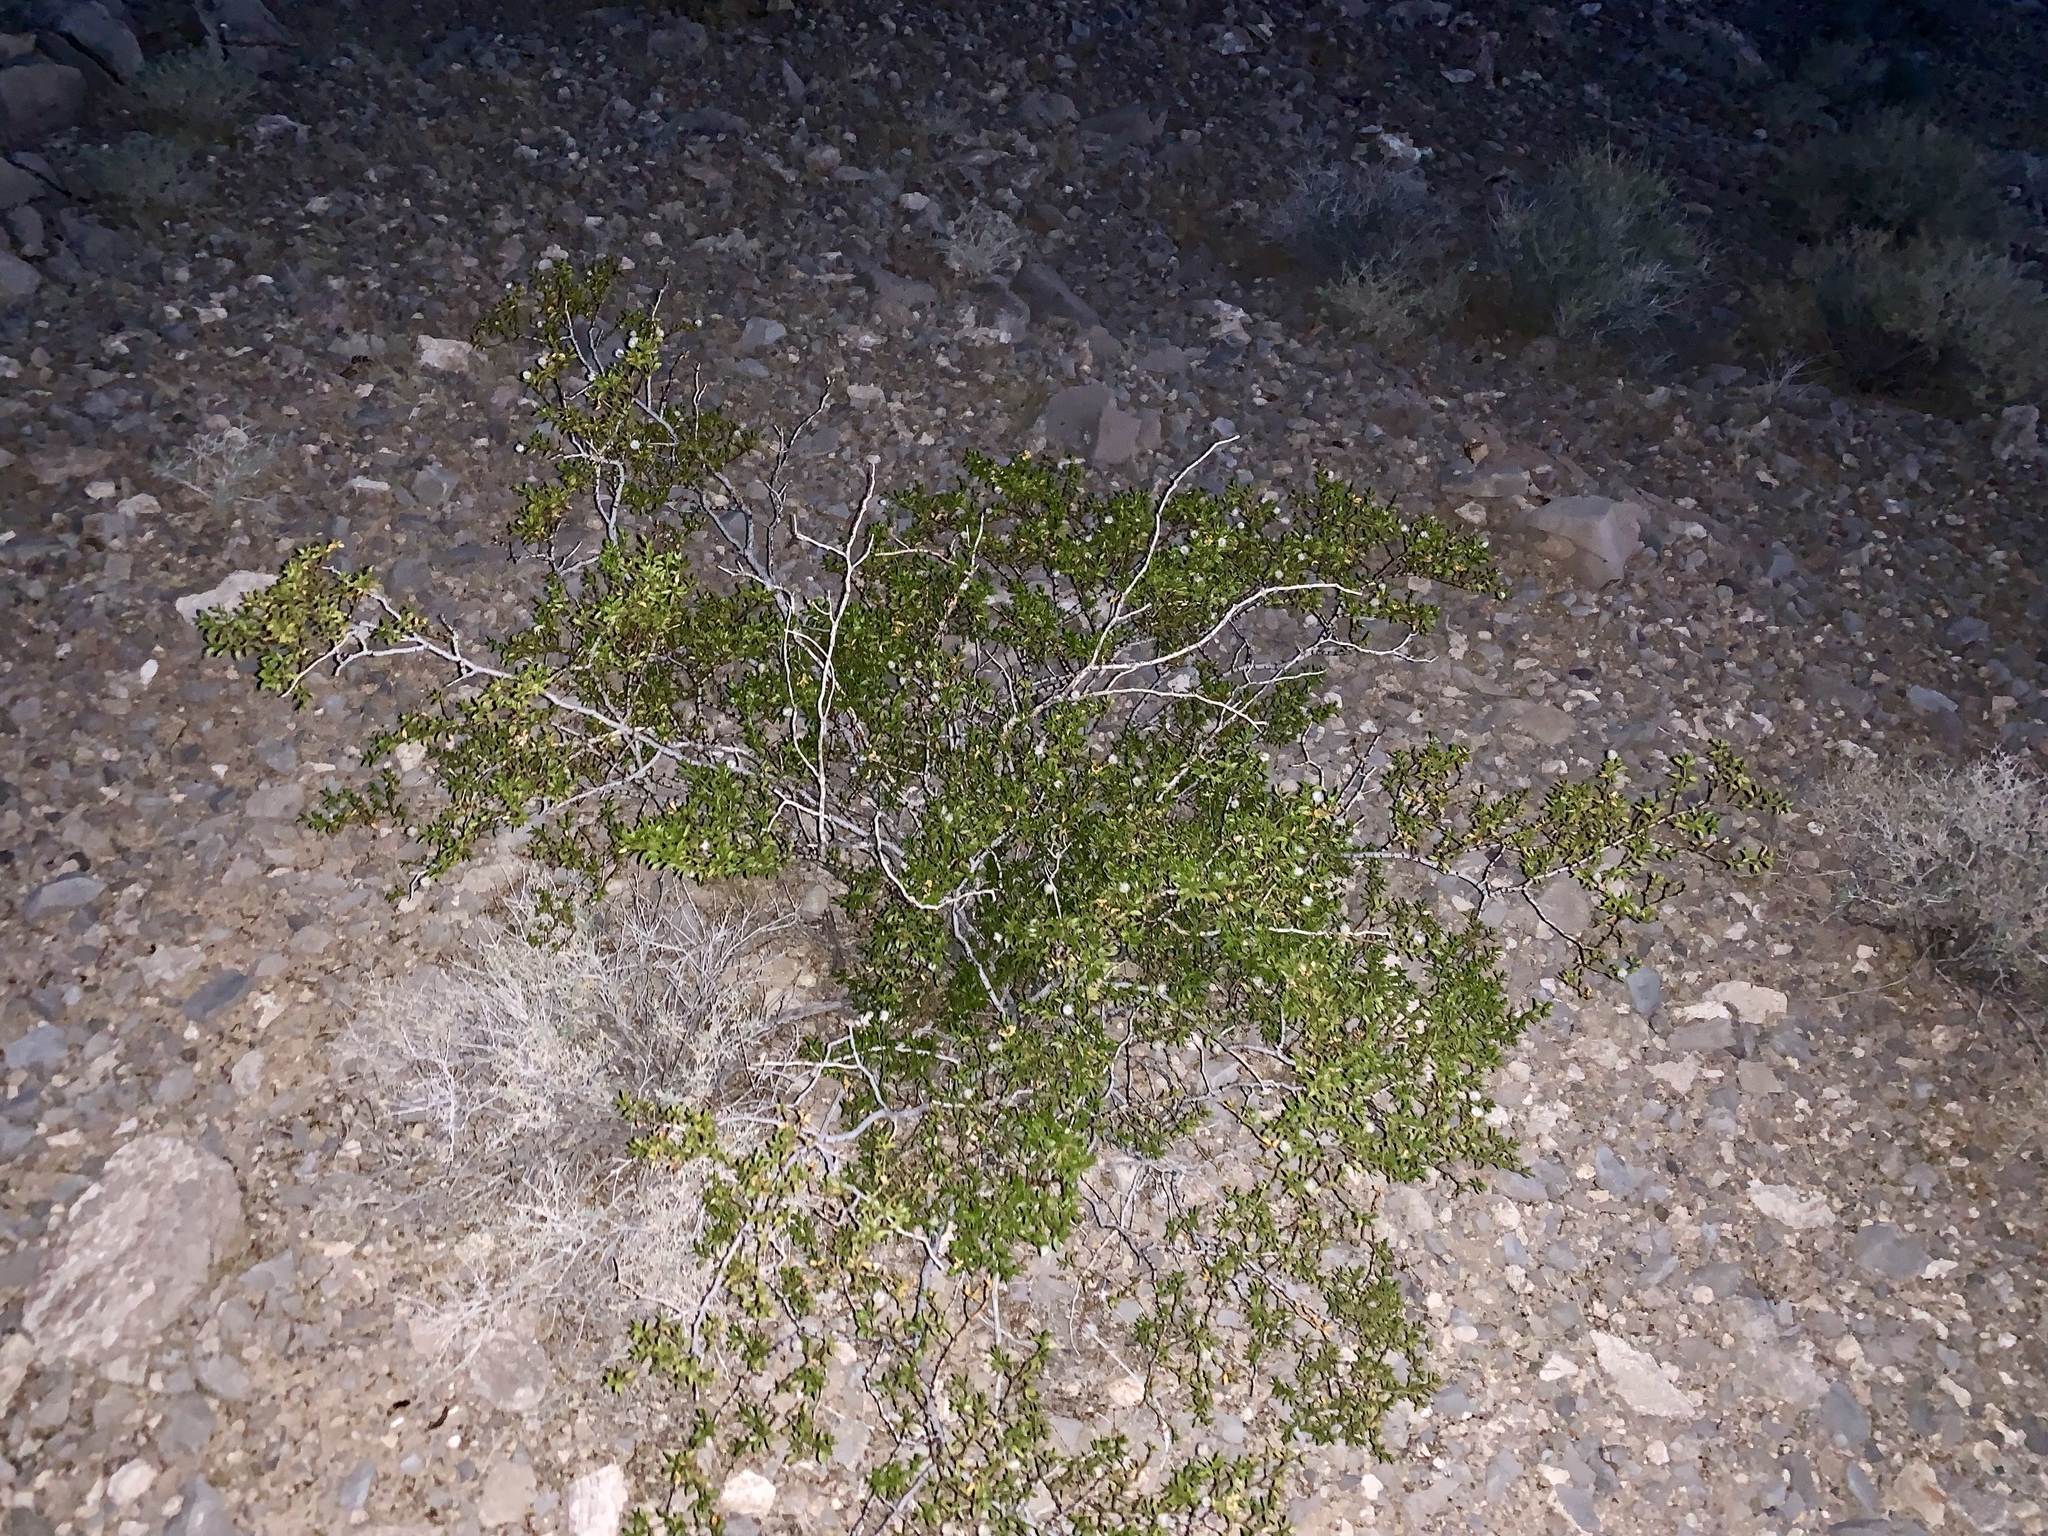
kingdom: Plantae
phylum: Tracheophyta
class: Magnoliopsida
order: Zygophyllales
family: Zygophyllaceae
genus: Larrea
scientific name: Larrea tridentata
